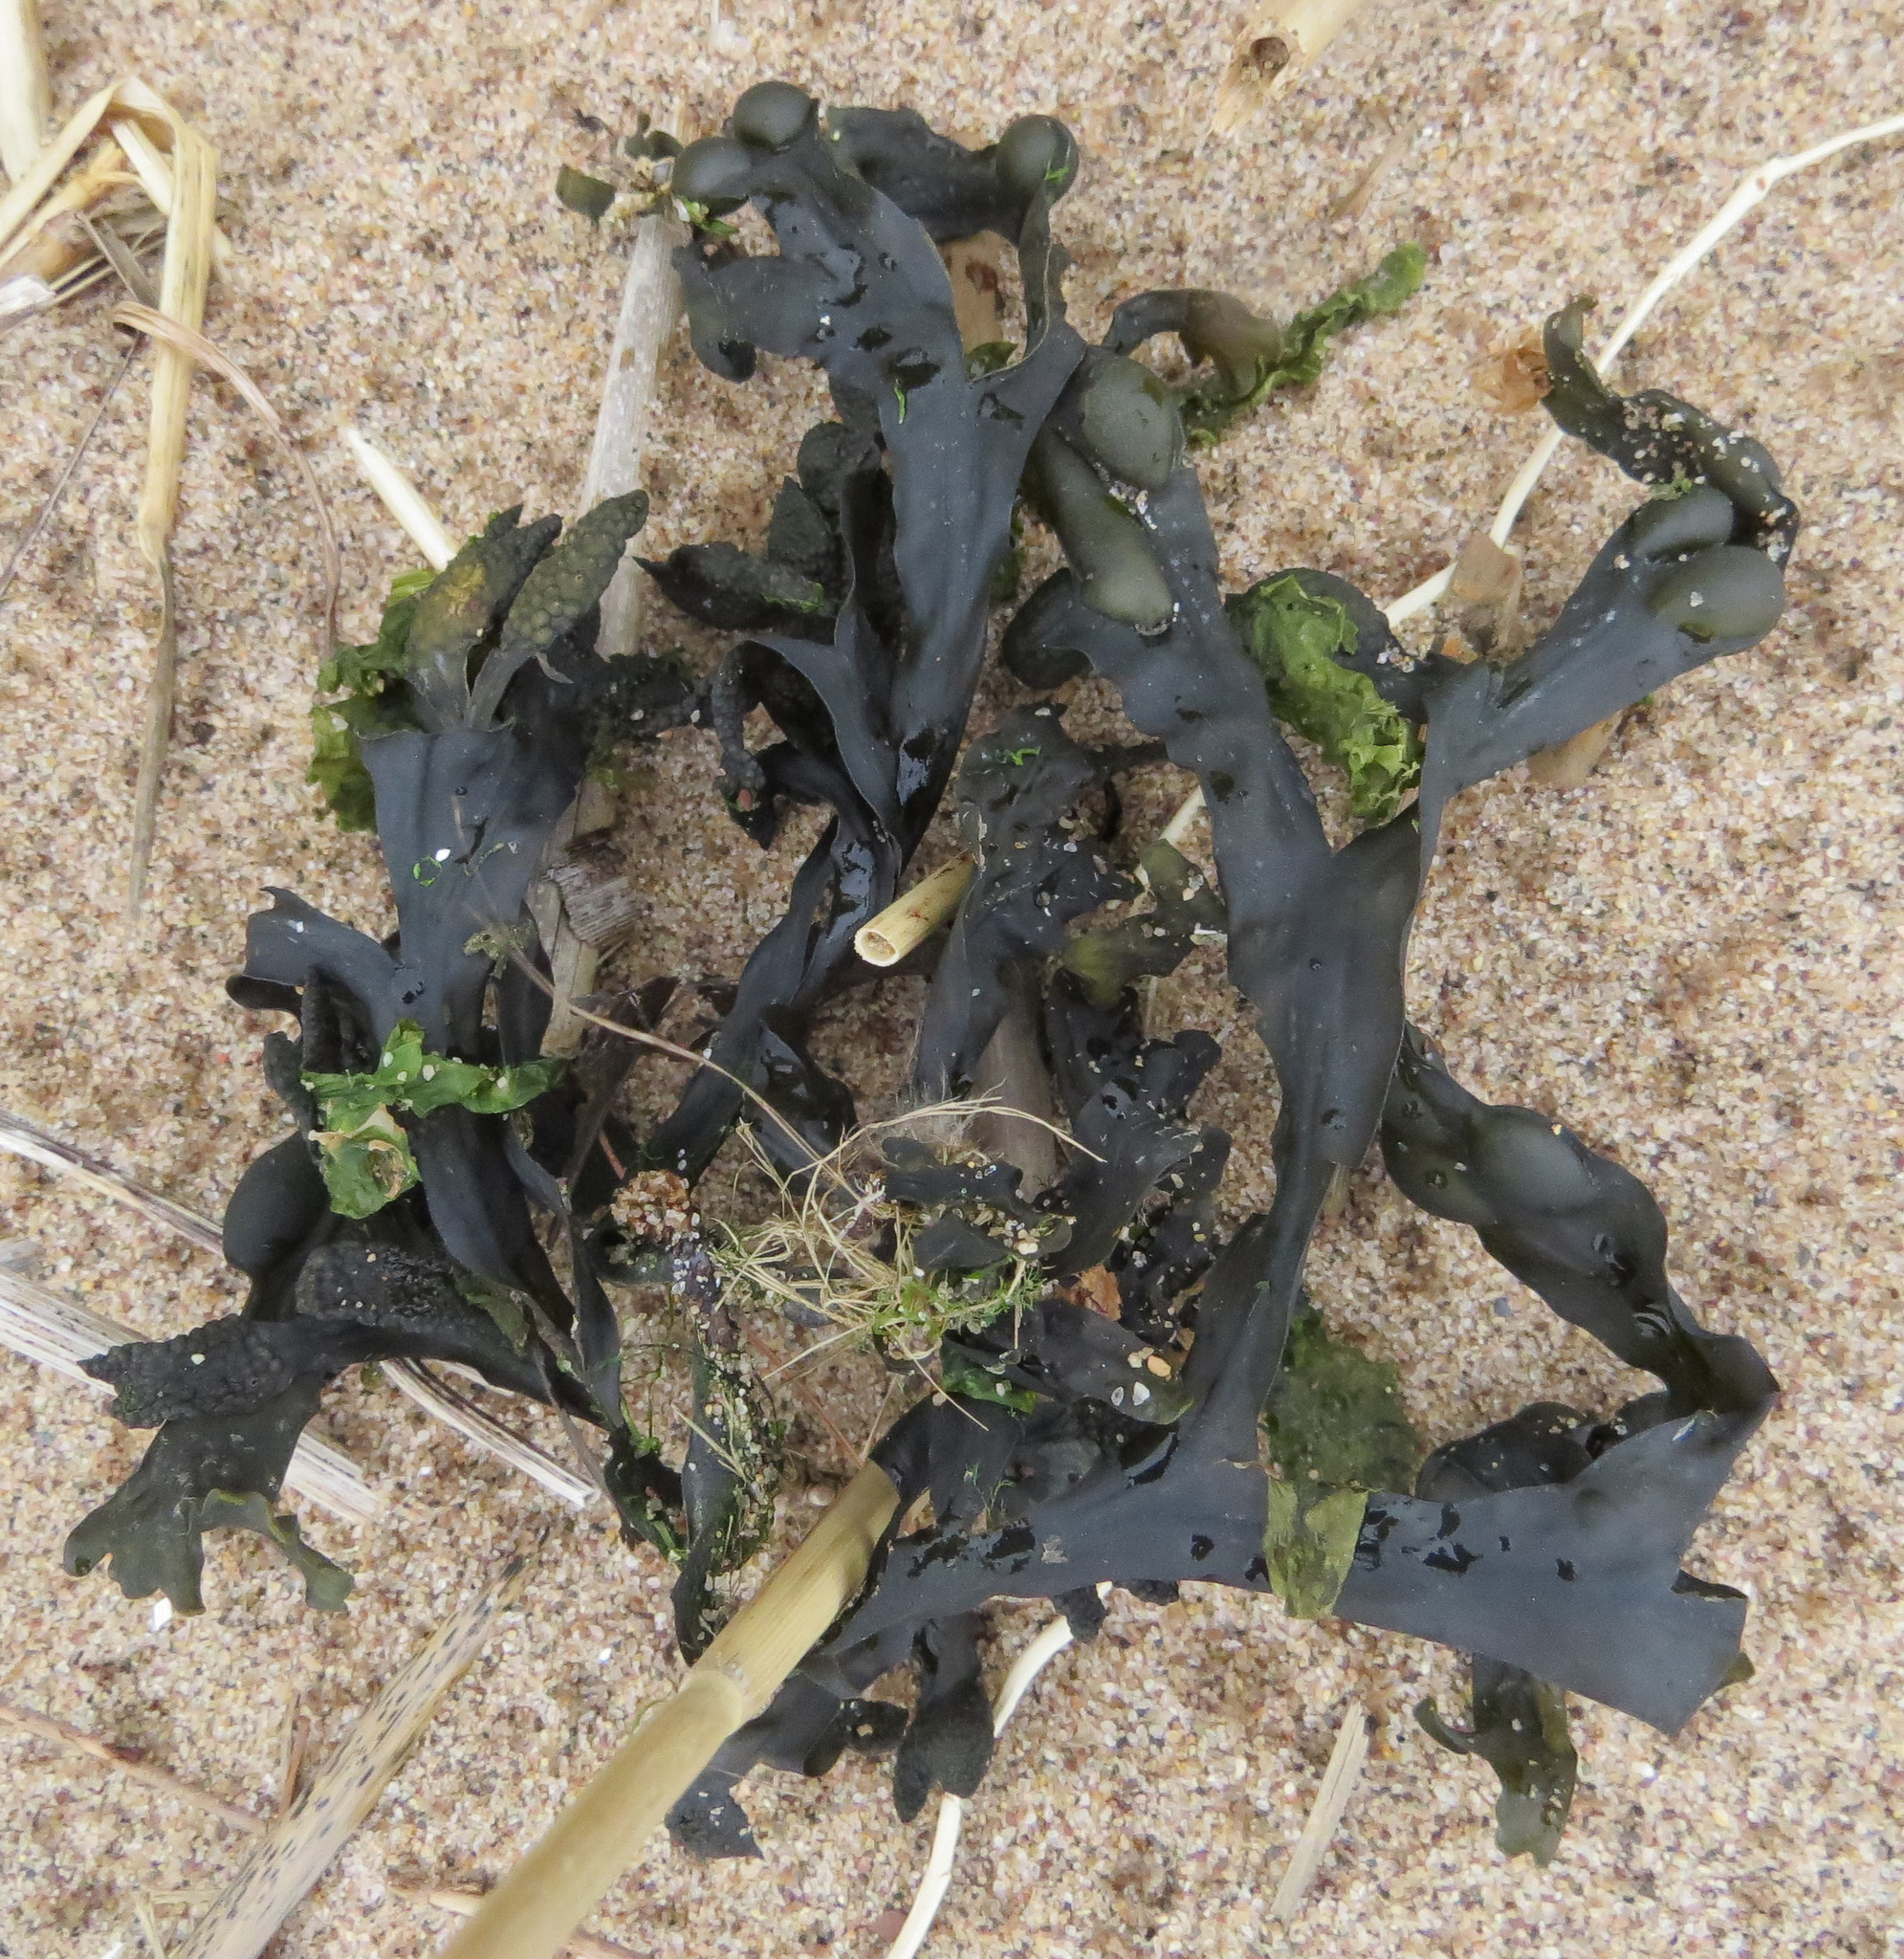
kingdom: Chromista
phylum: Ochrophyta
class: Phaeophyceae
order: Fucales
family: Fucaceae
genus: Fucus
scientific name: Fucus vesiculosus
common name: Bladder wrack
